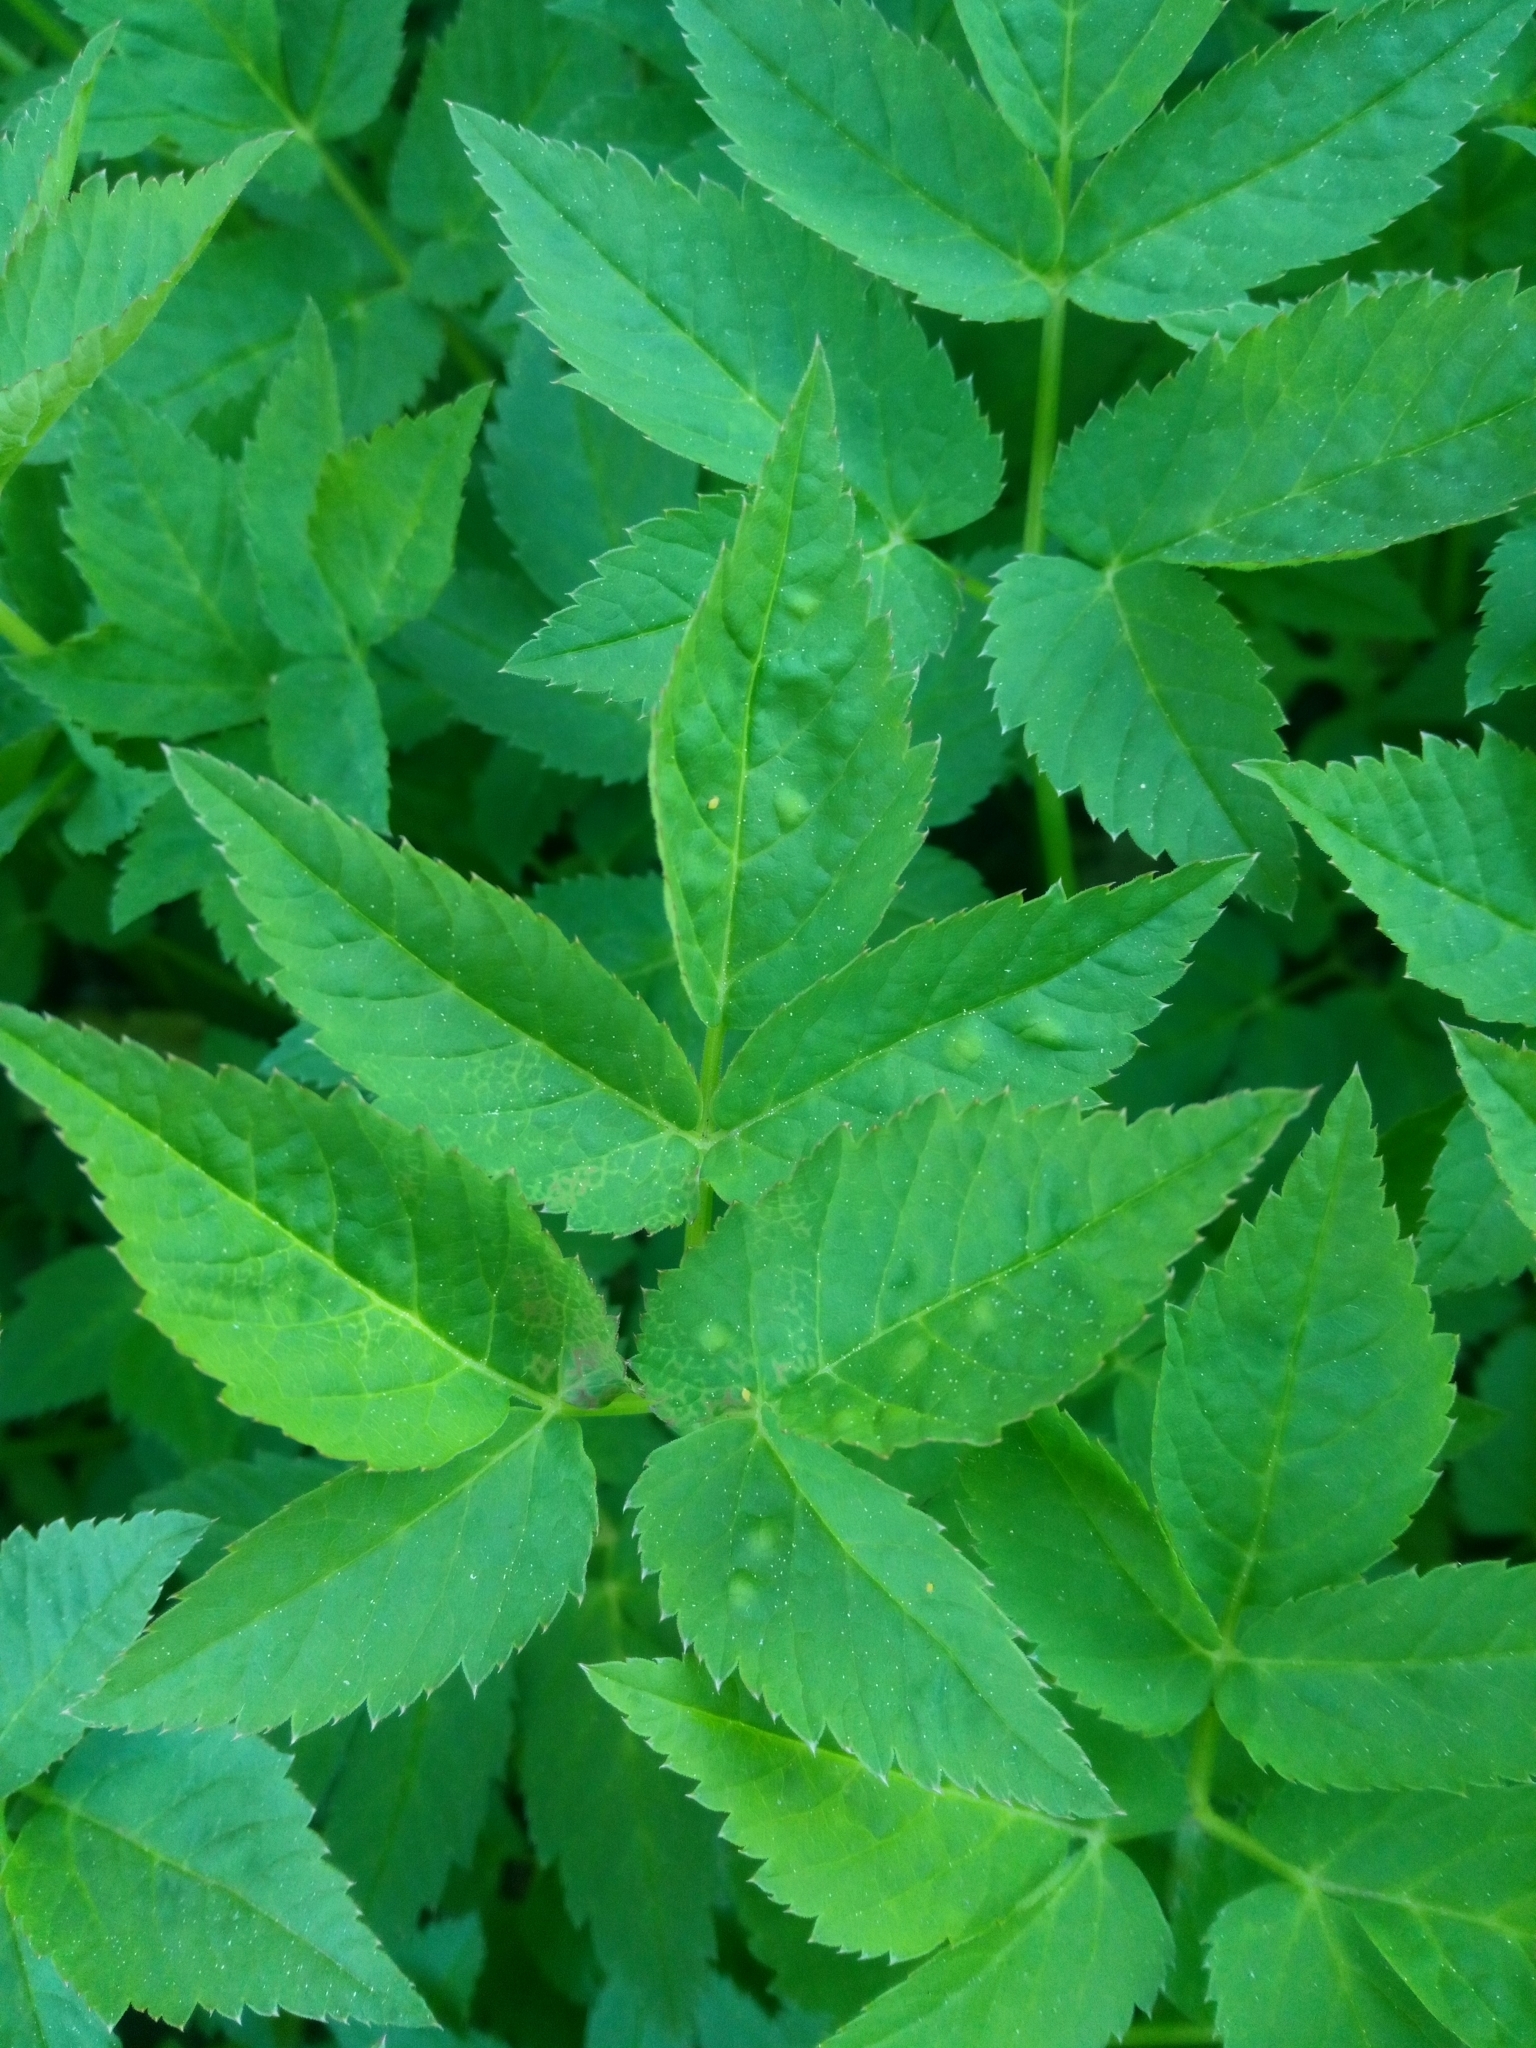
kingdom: Plantae
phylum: Tracheophyta
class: Magnoliopsida
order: Apiales
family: Apiaceae
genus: Aegopodium
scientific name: Aegopodium podagraria
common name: Ground-elder
